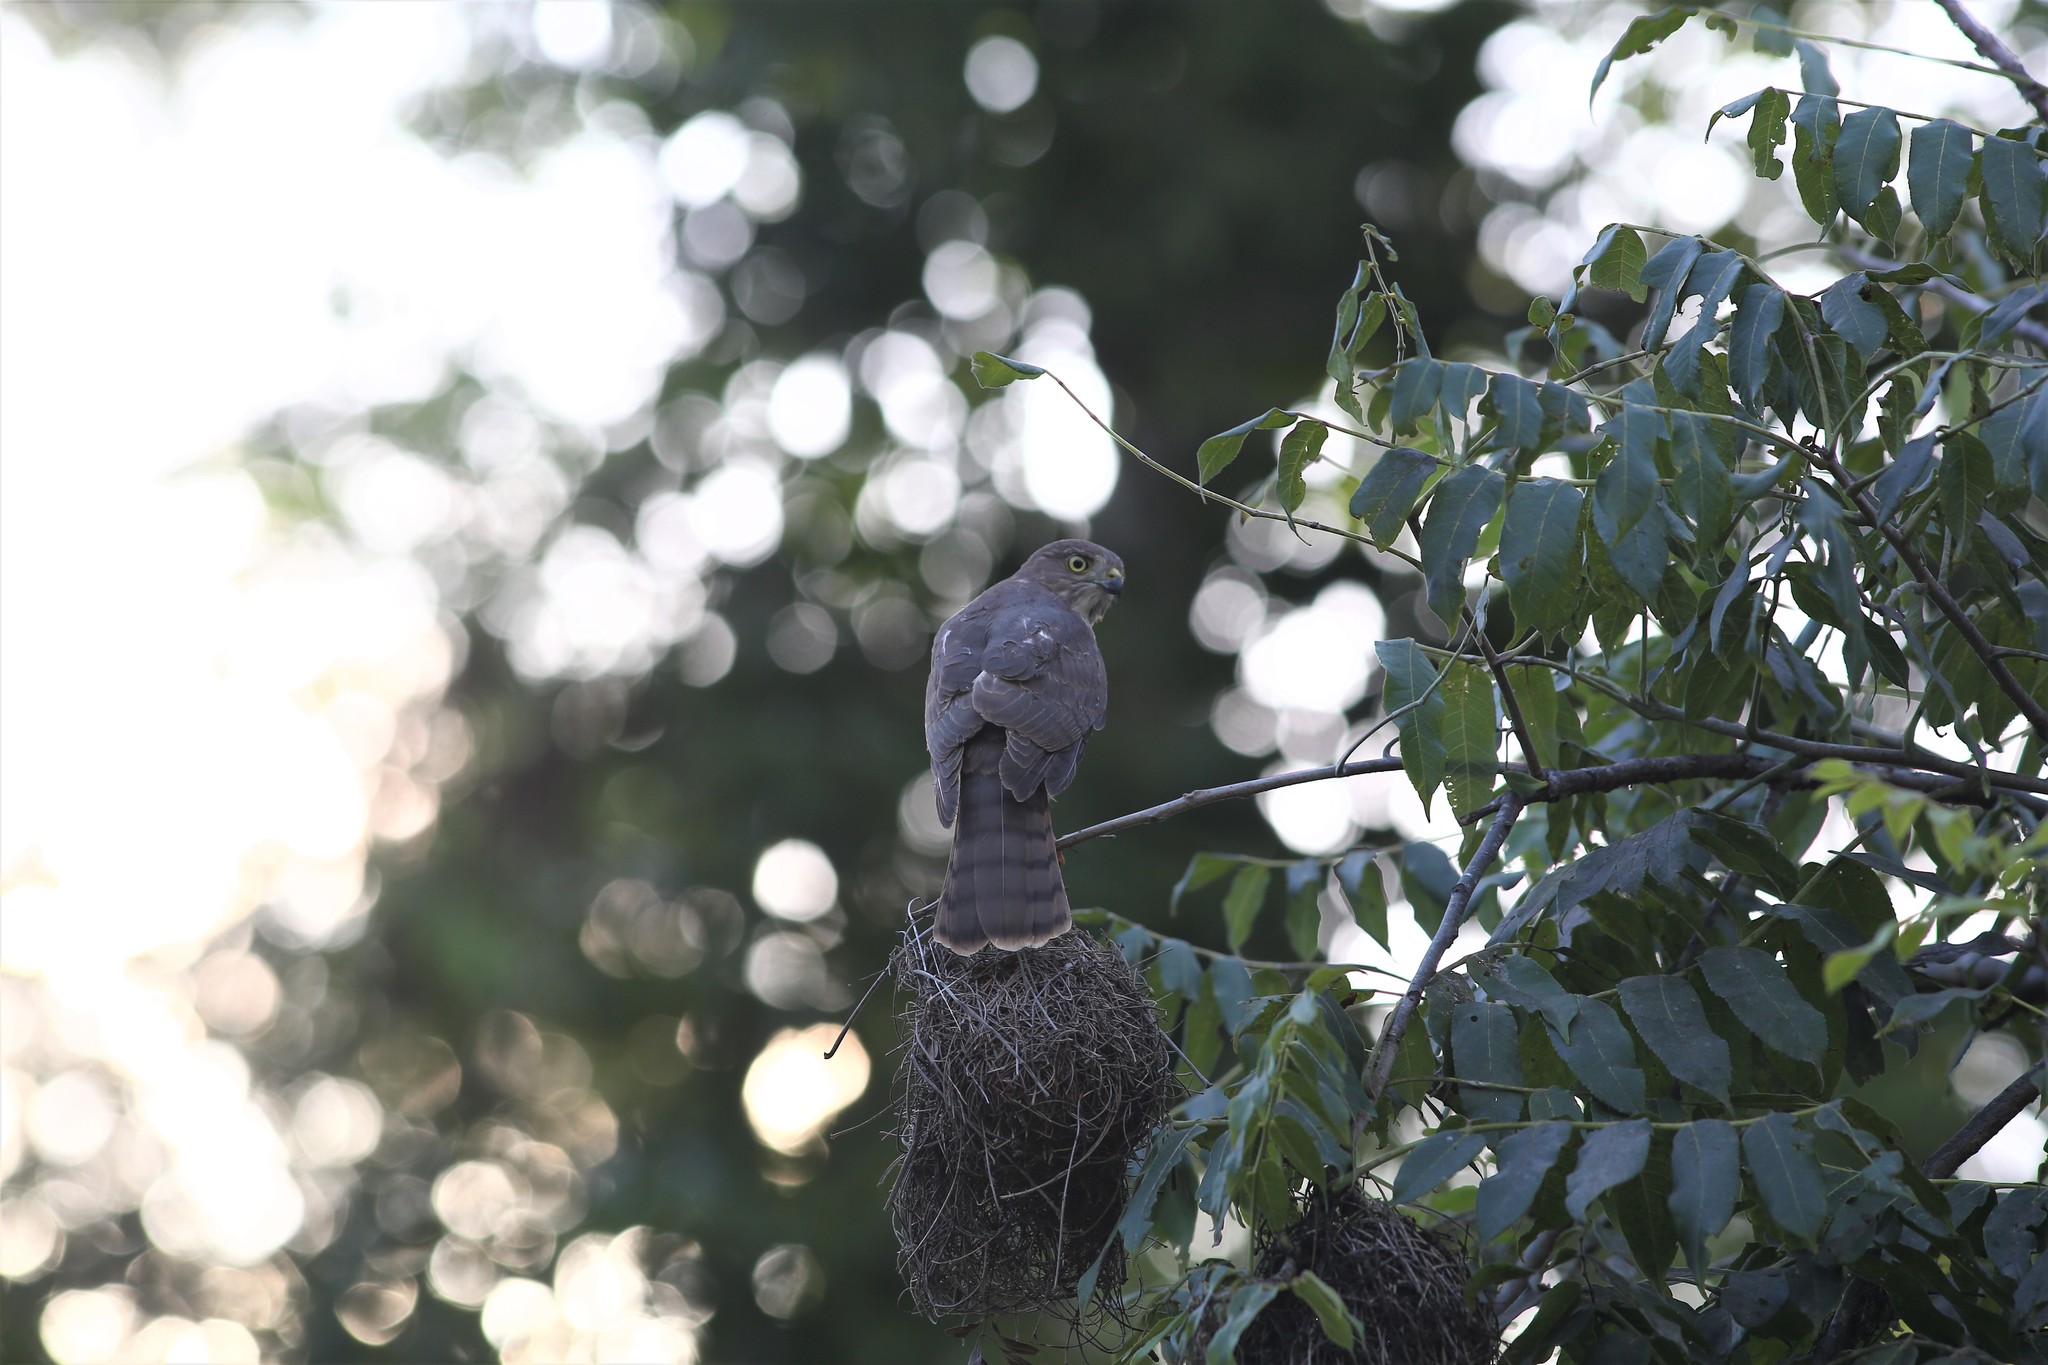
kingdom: Animalia
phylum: Chordata
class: Aves
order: Accipitriformes
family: Accipitridae
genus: Accipiter
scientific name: Accipiter francesiae
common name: Frances's sparrowhawk
